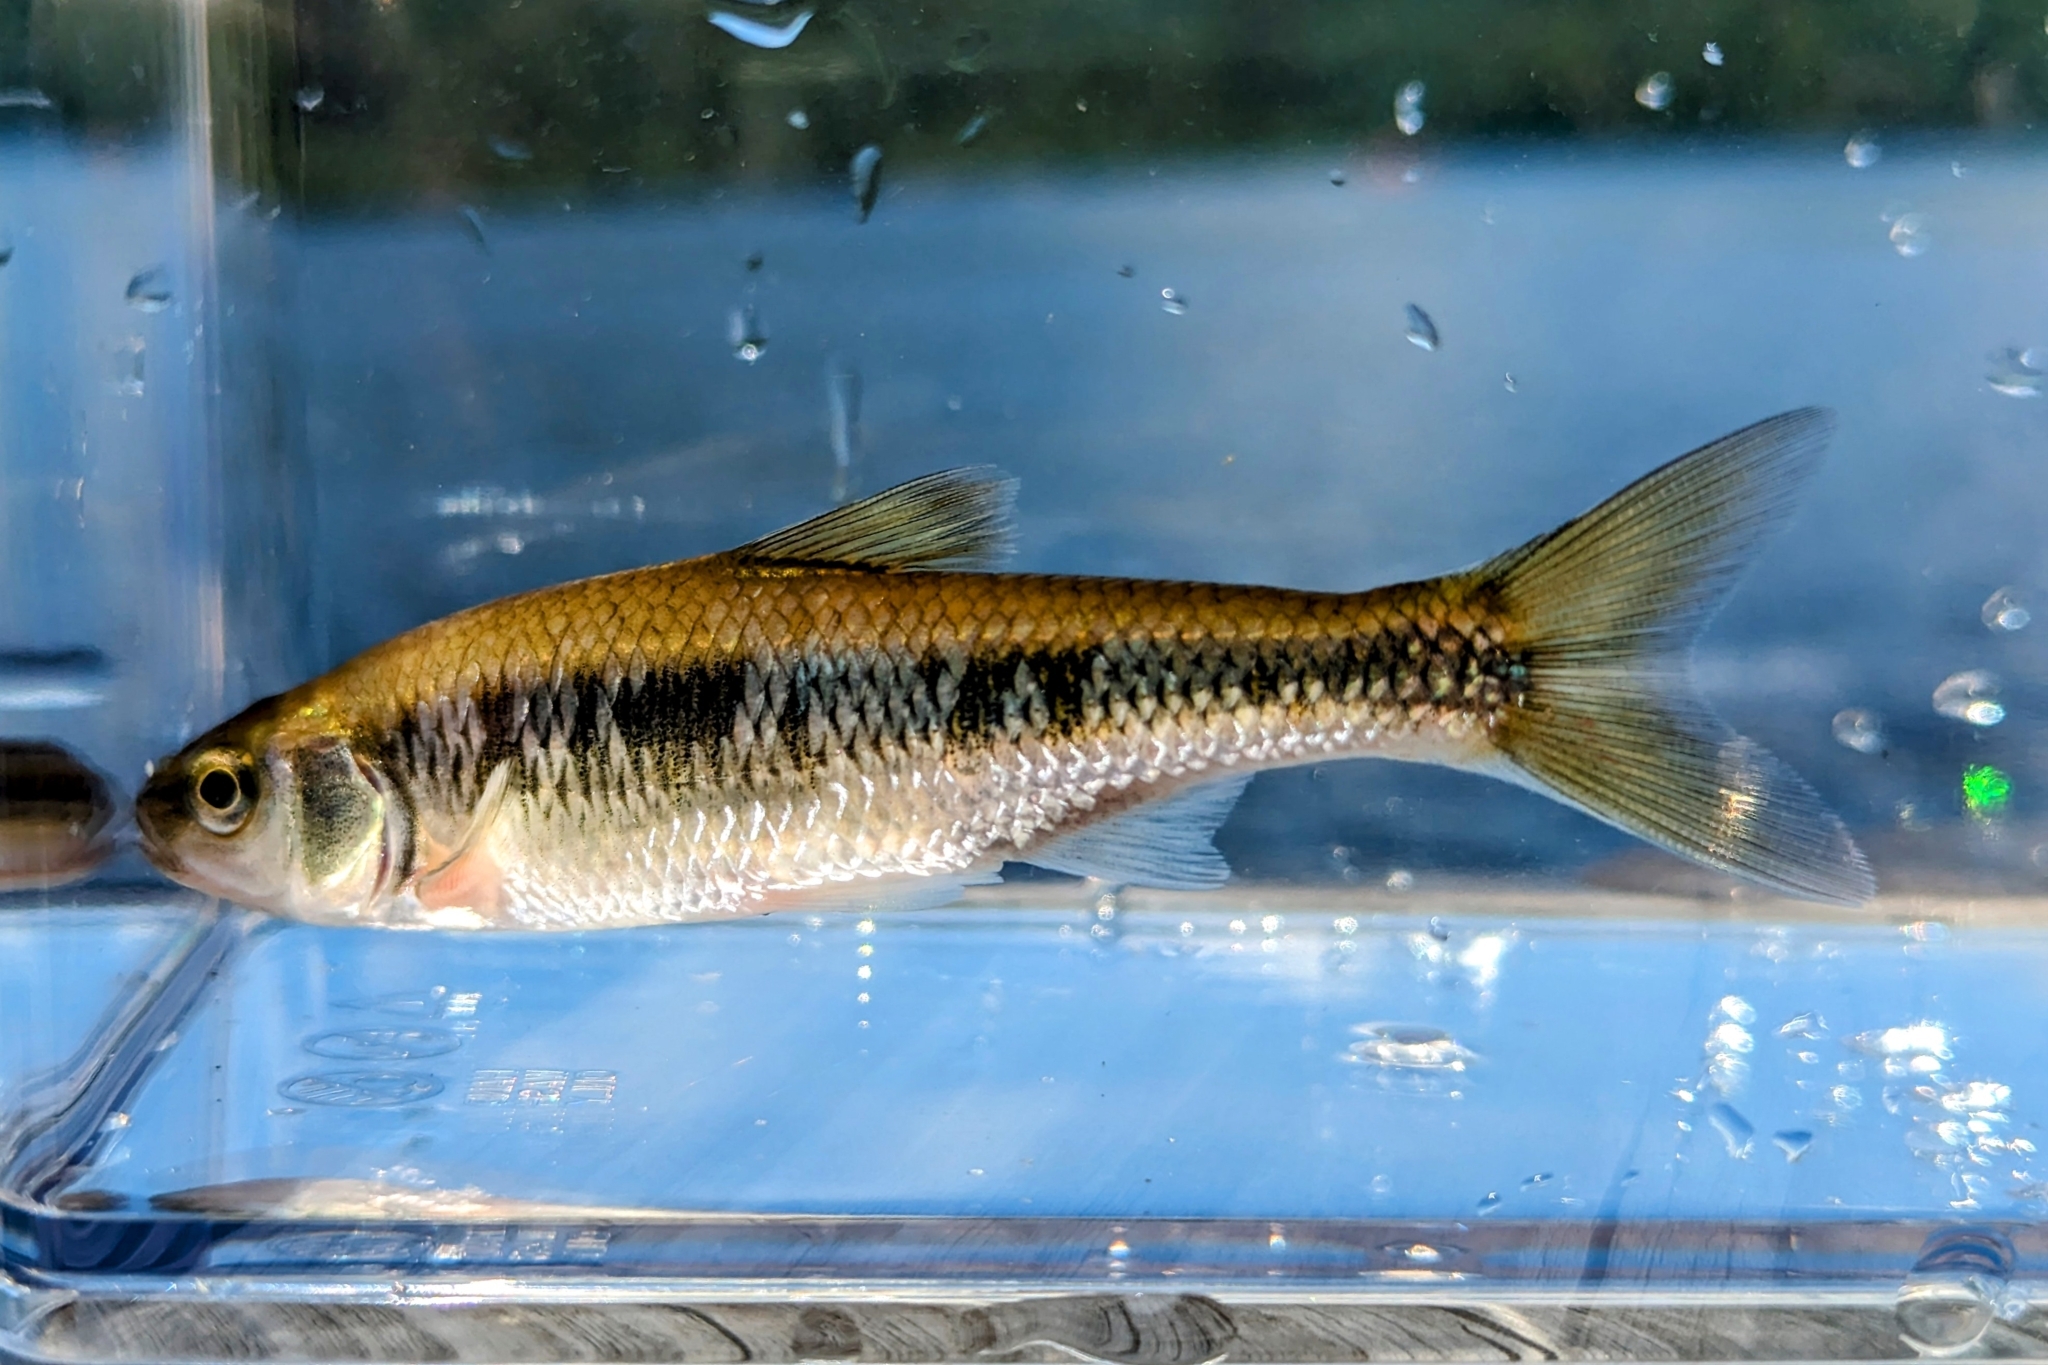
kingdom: Animalia
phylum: Chordata
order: Cypriniformes
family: Cyprinidae
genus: Luxilus
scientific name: Luxilus cornutus
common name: Common shiner
